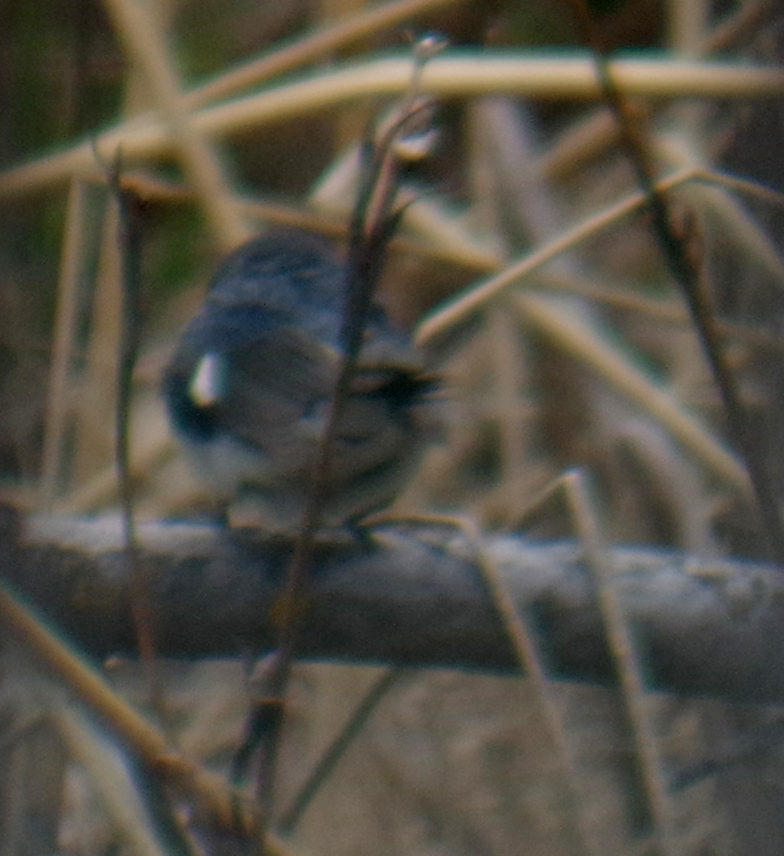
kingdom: Animalia
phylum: Chordata
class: Aves
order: Passeriformes
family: Parulidae
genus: Setophaga
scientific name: Setophaga caerulescens
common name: Black-throated blue warbler
